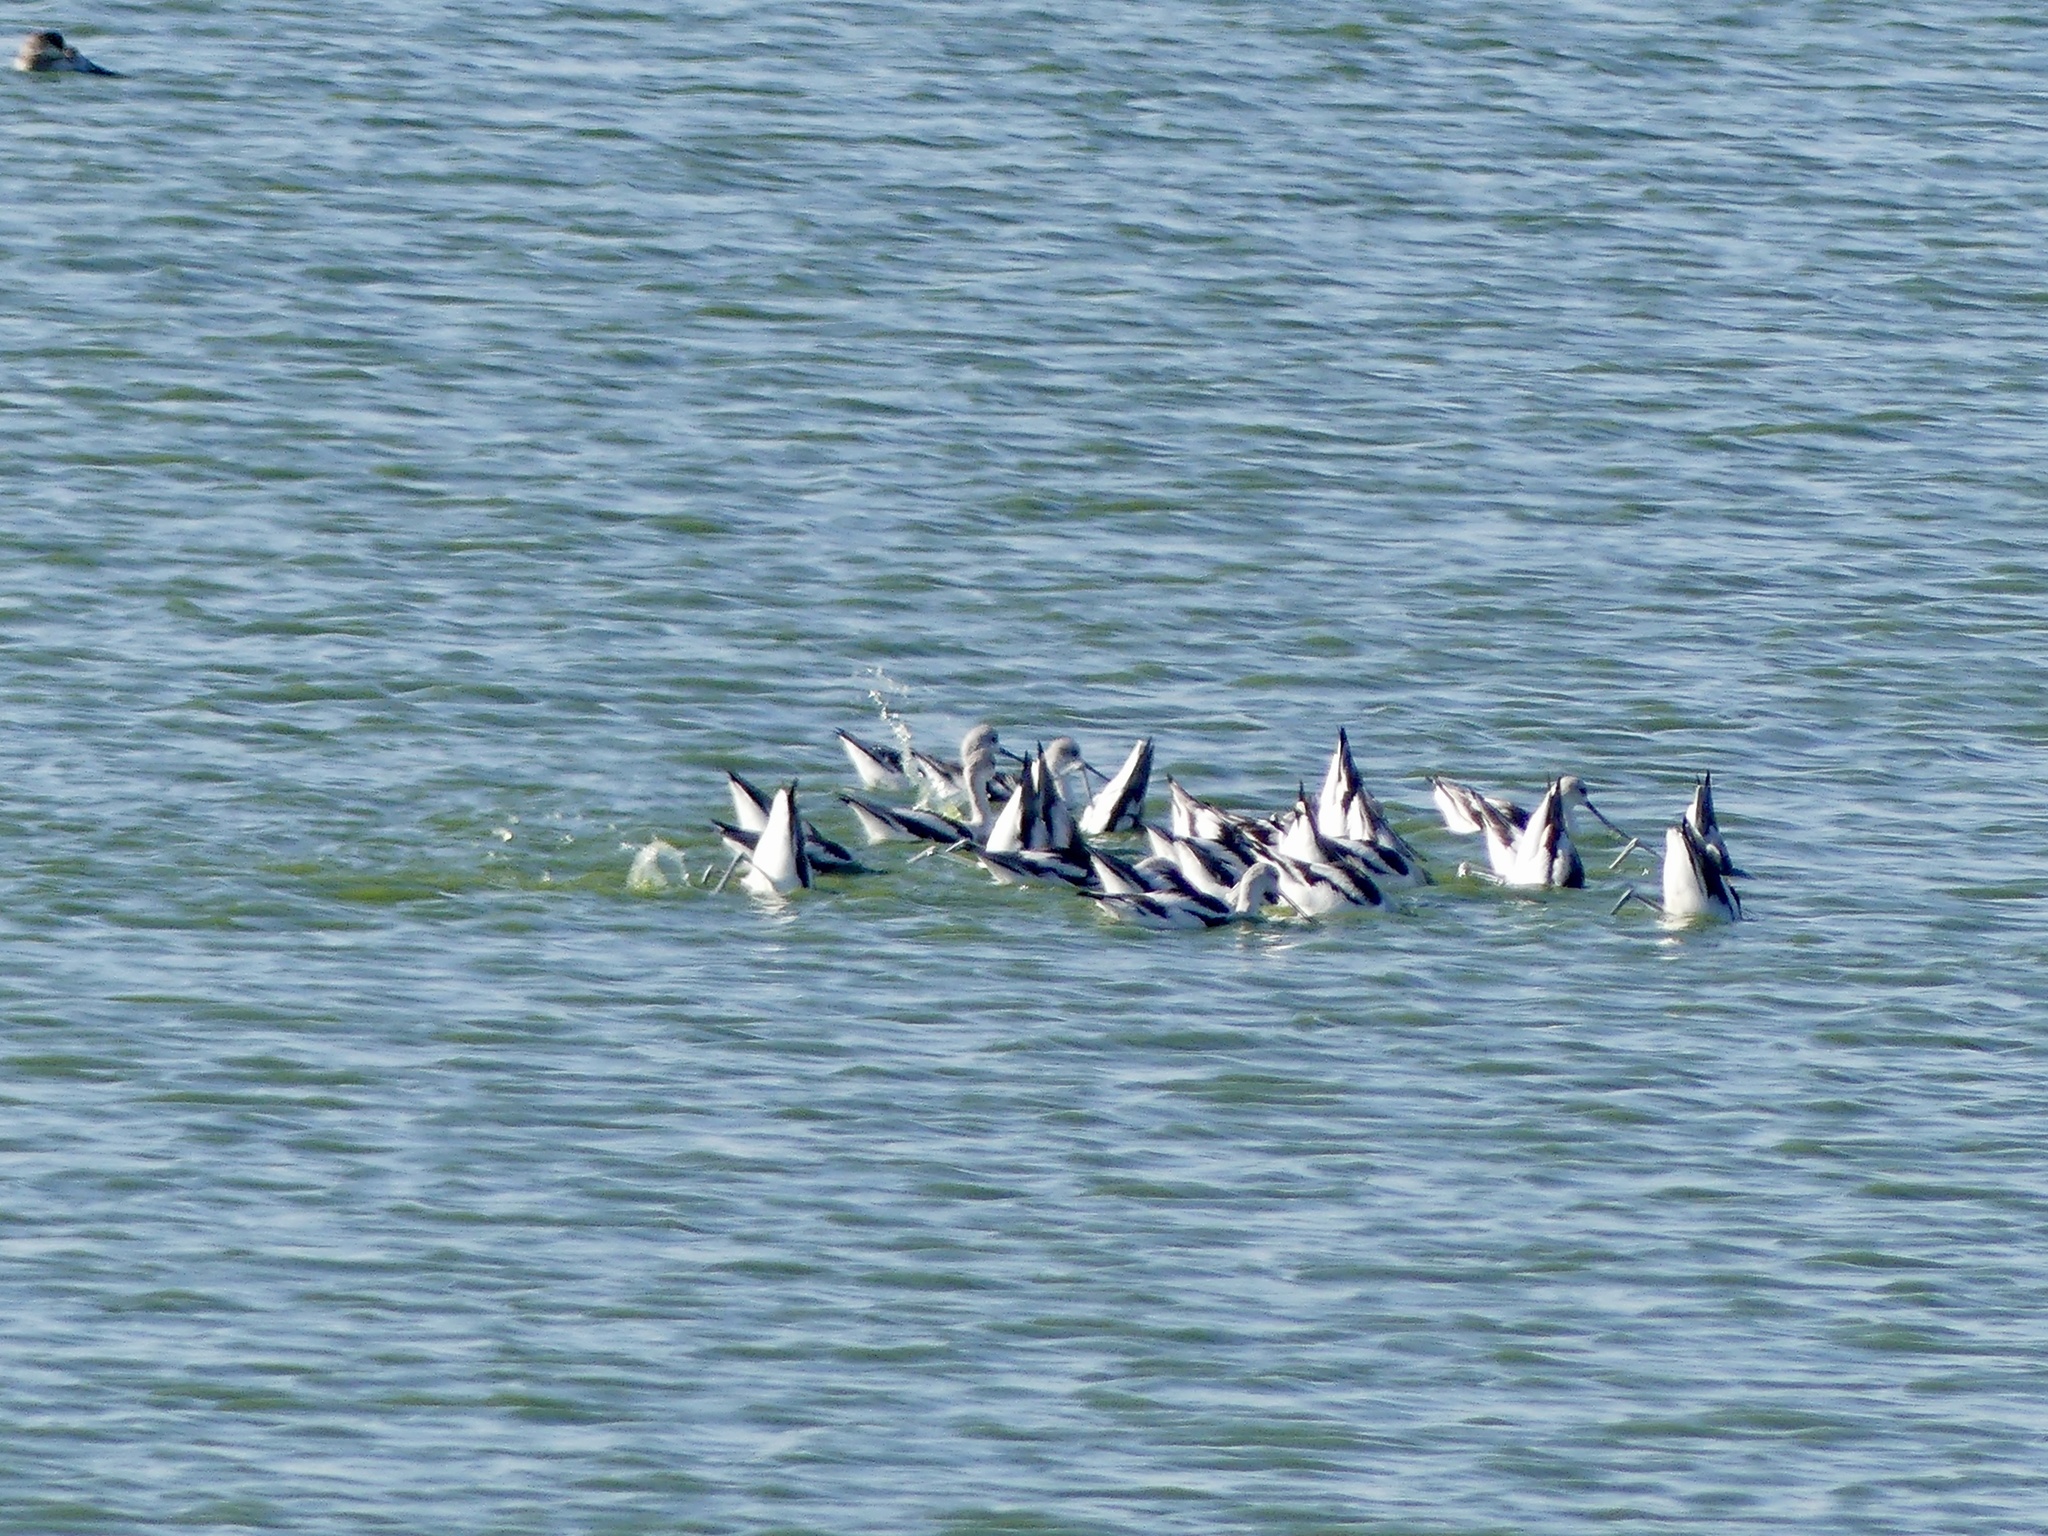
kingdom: Animalia
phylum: Chordata
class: Aves
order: Charadriiformes
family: Recurvirostridae
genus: Recurvirostra
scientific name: Recurvirostra americana
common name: American avocet
